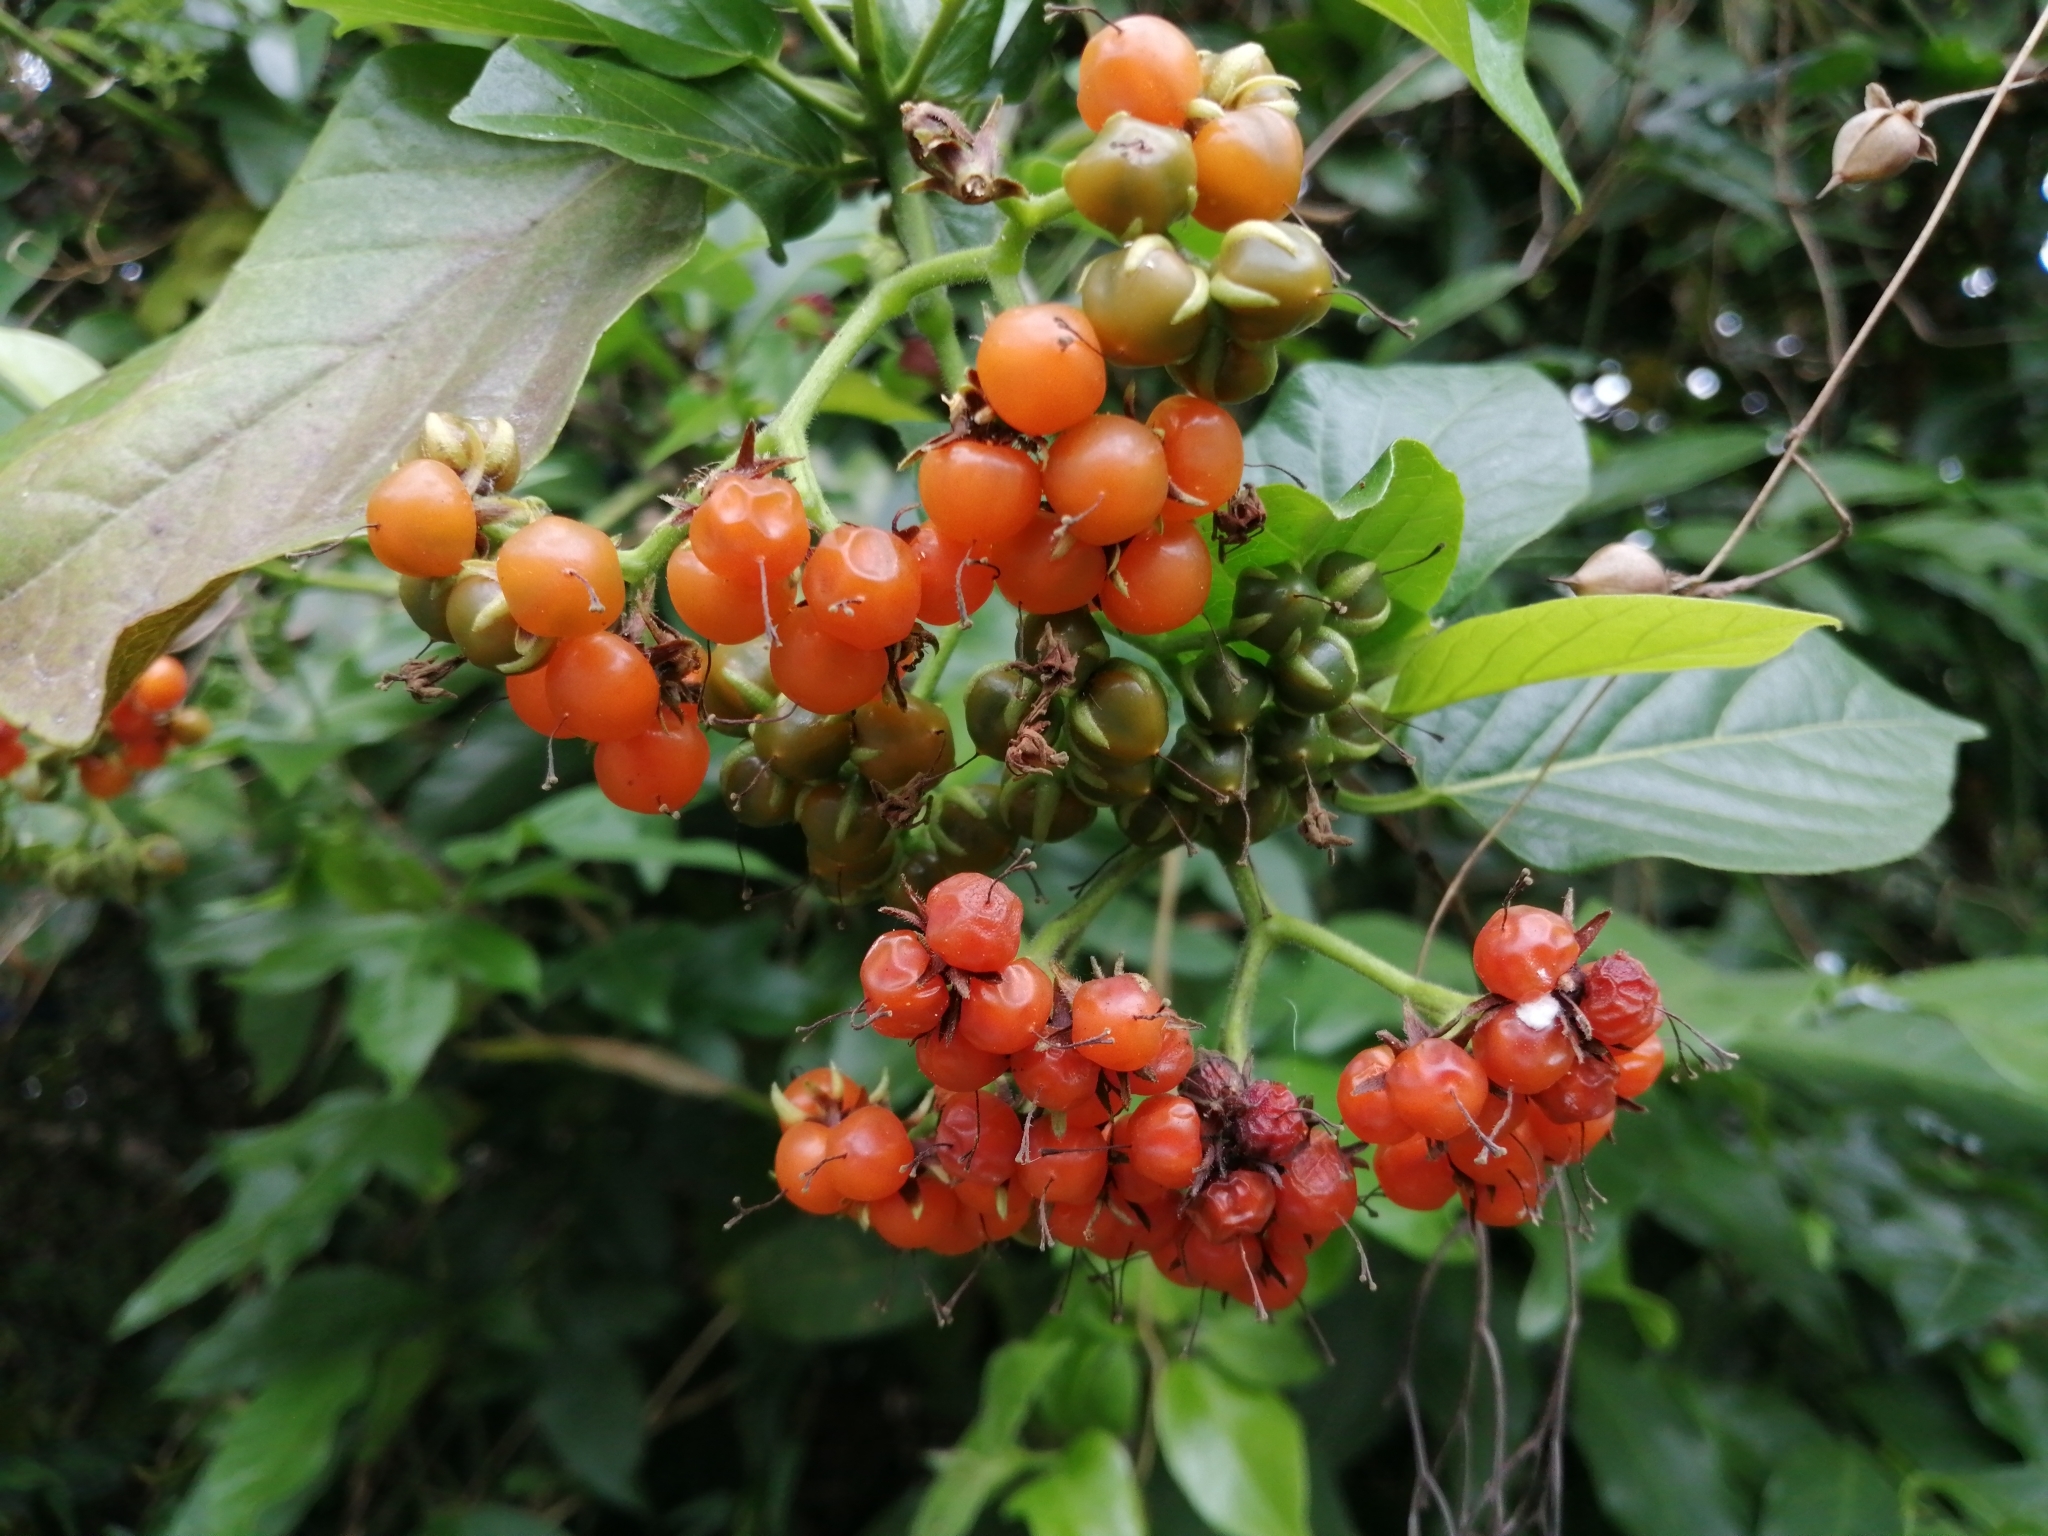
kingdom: Plantae
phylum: Tracheophyta
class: Magnoliopsida
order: Boraginales
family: Ehretiaceae
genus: Ehretia
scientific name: Ehretia resinosa
